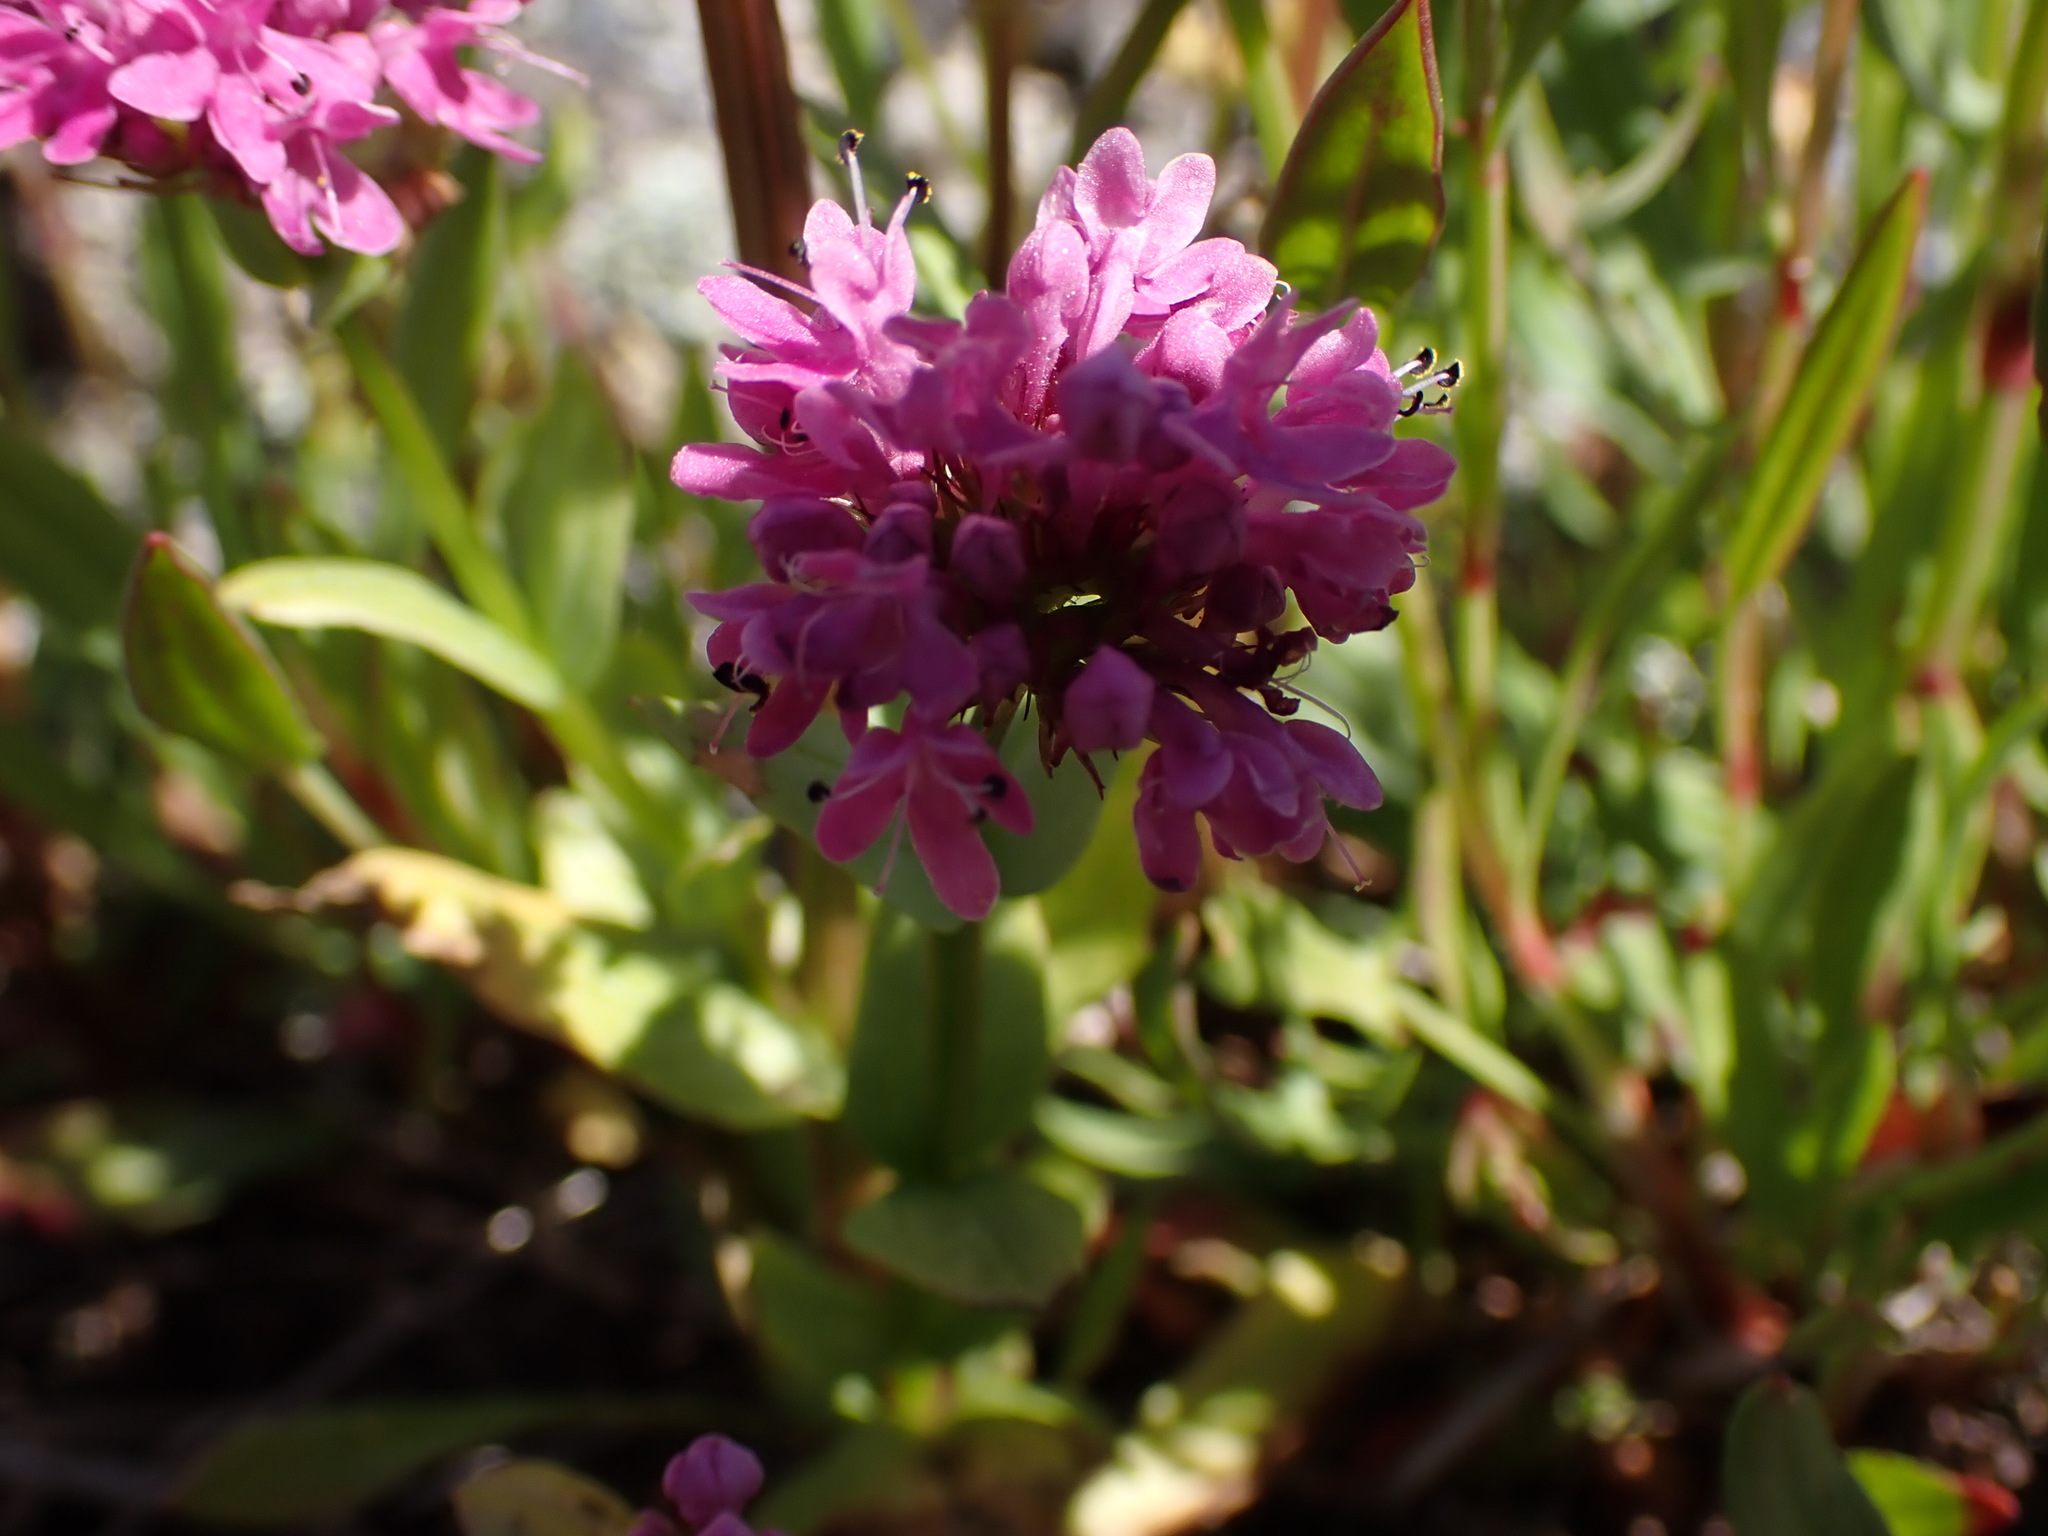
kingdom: Plantae
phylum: Tracheophyta
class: Magnoliopsida
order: Dipsacales
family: Caprifoliaceae
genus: Plectritis
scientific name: Plectritis congesta
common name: Pink plectritis
